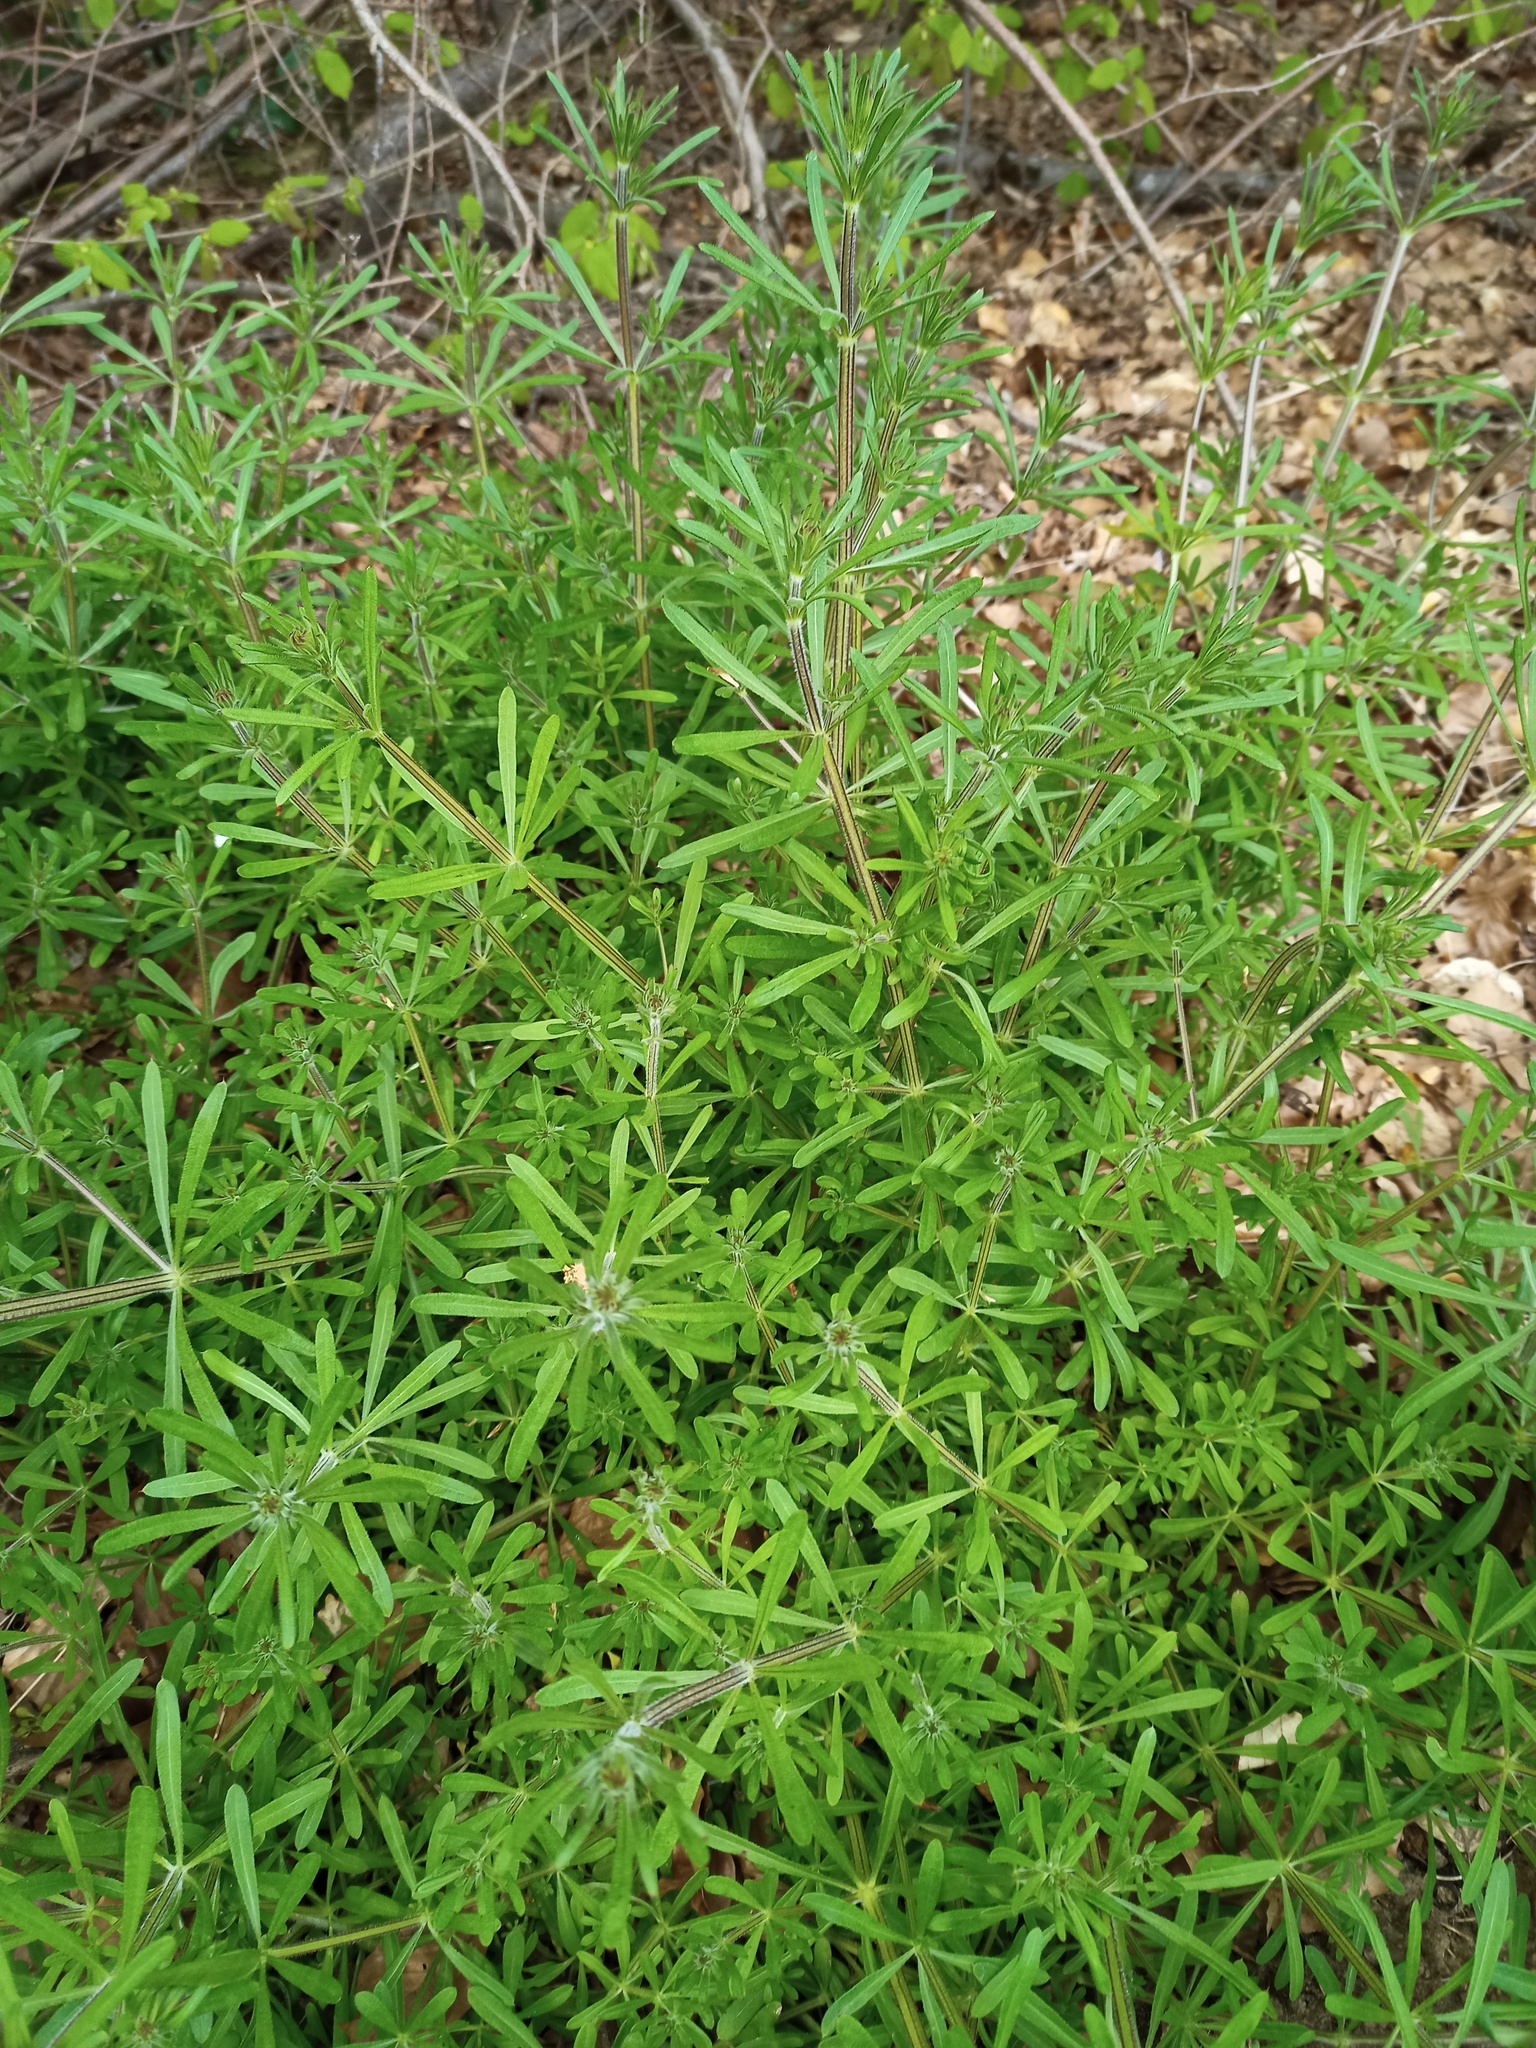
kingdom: Plantae
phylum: Tracheophyta
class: Magnoliopsida
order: Gentianales
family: Rubiaceae
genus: Galium
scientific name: Galium aparine
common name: Cleavers
